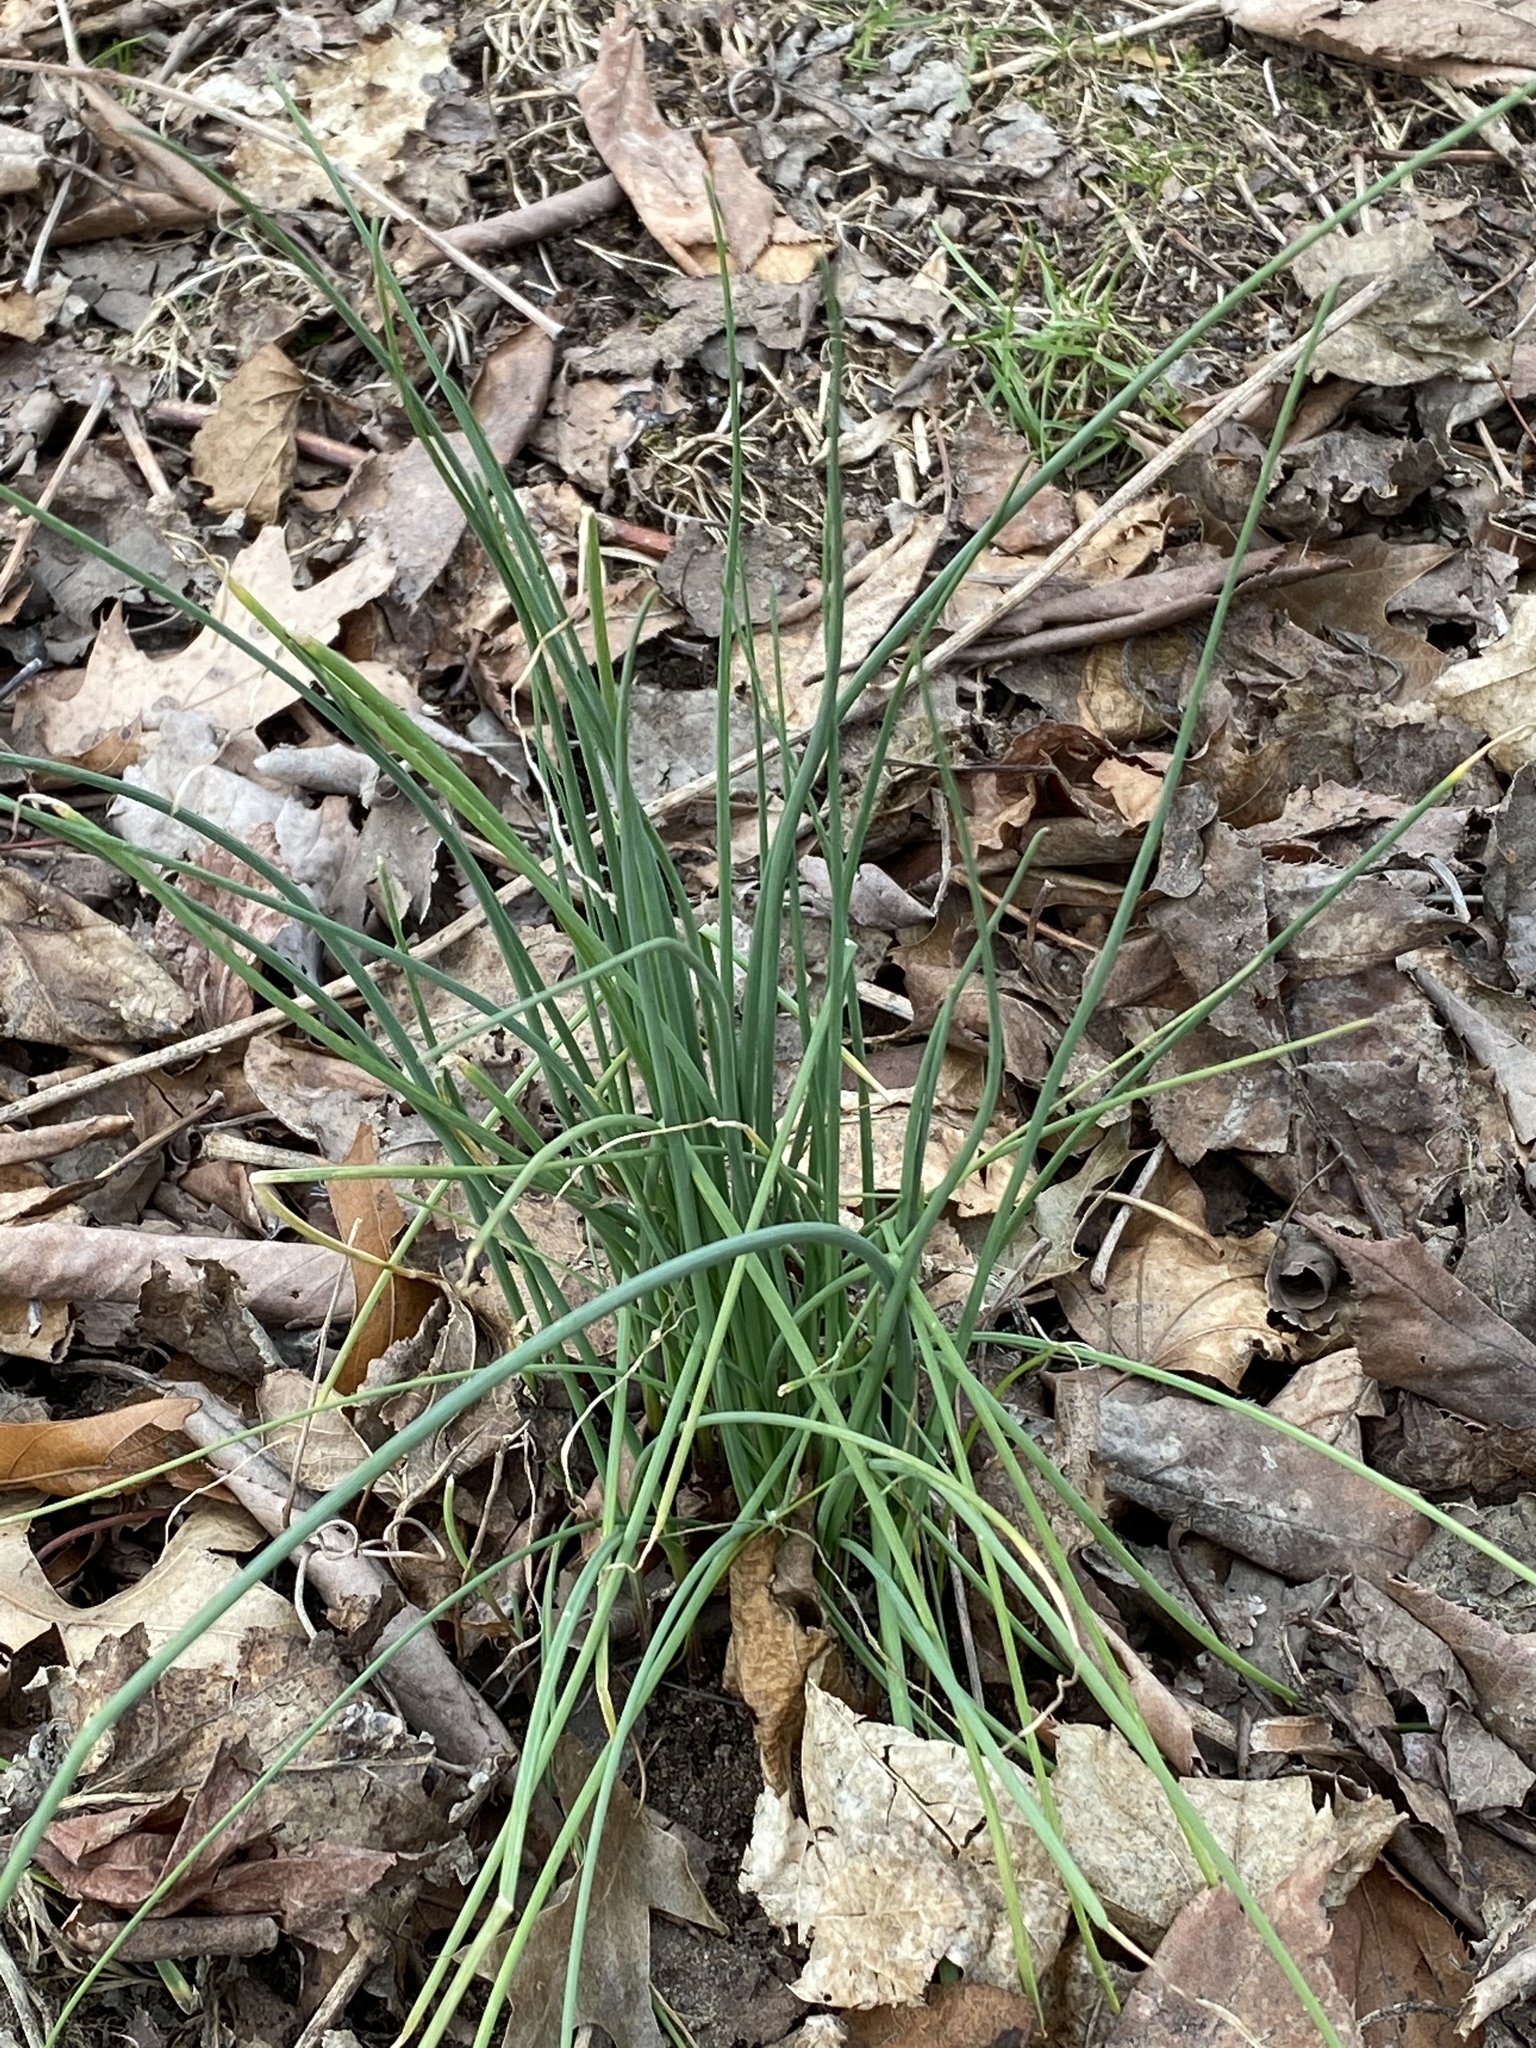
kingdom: Plantae
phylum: Tracheophyta
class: Liliopsida
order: Asparagales
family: Amaryllidaceae
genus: Allium
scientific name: Allium vineale
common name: Crow garlic
